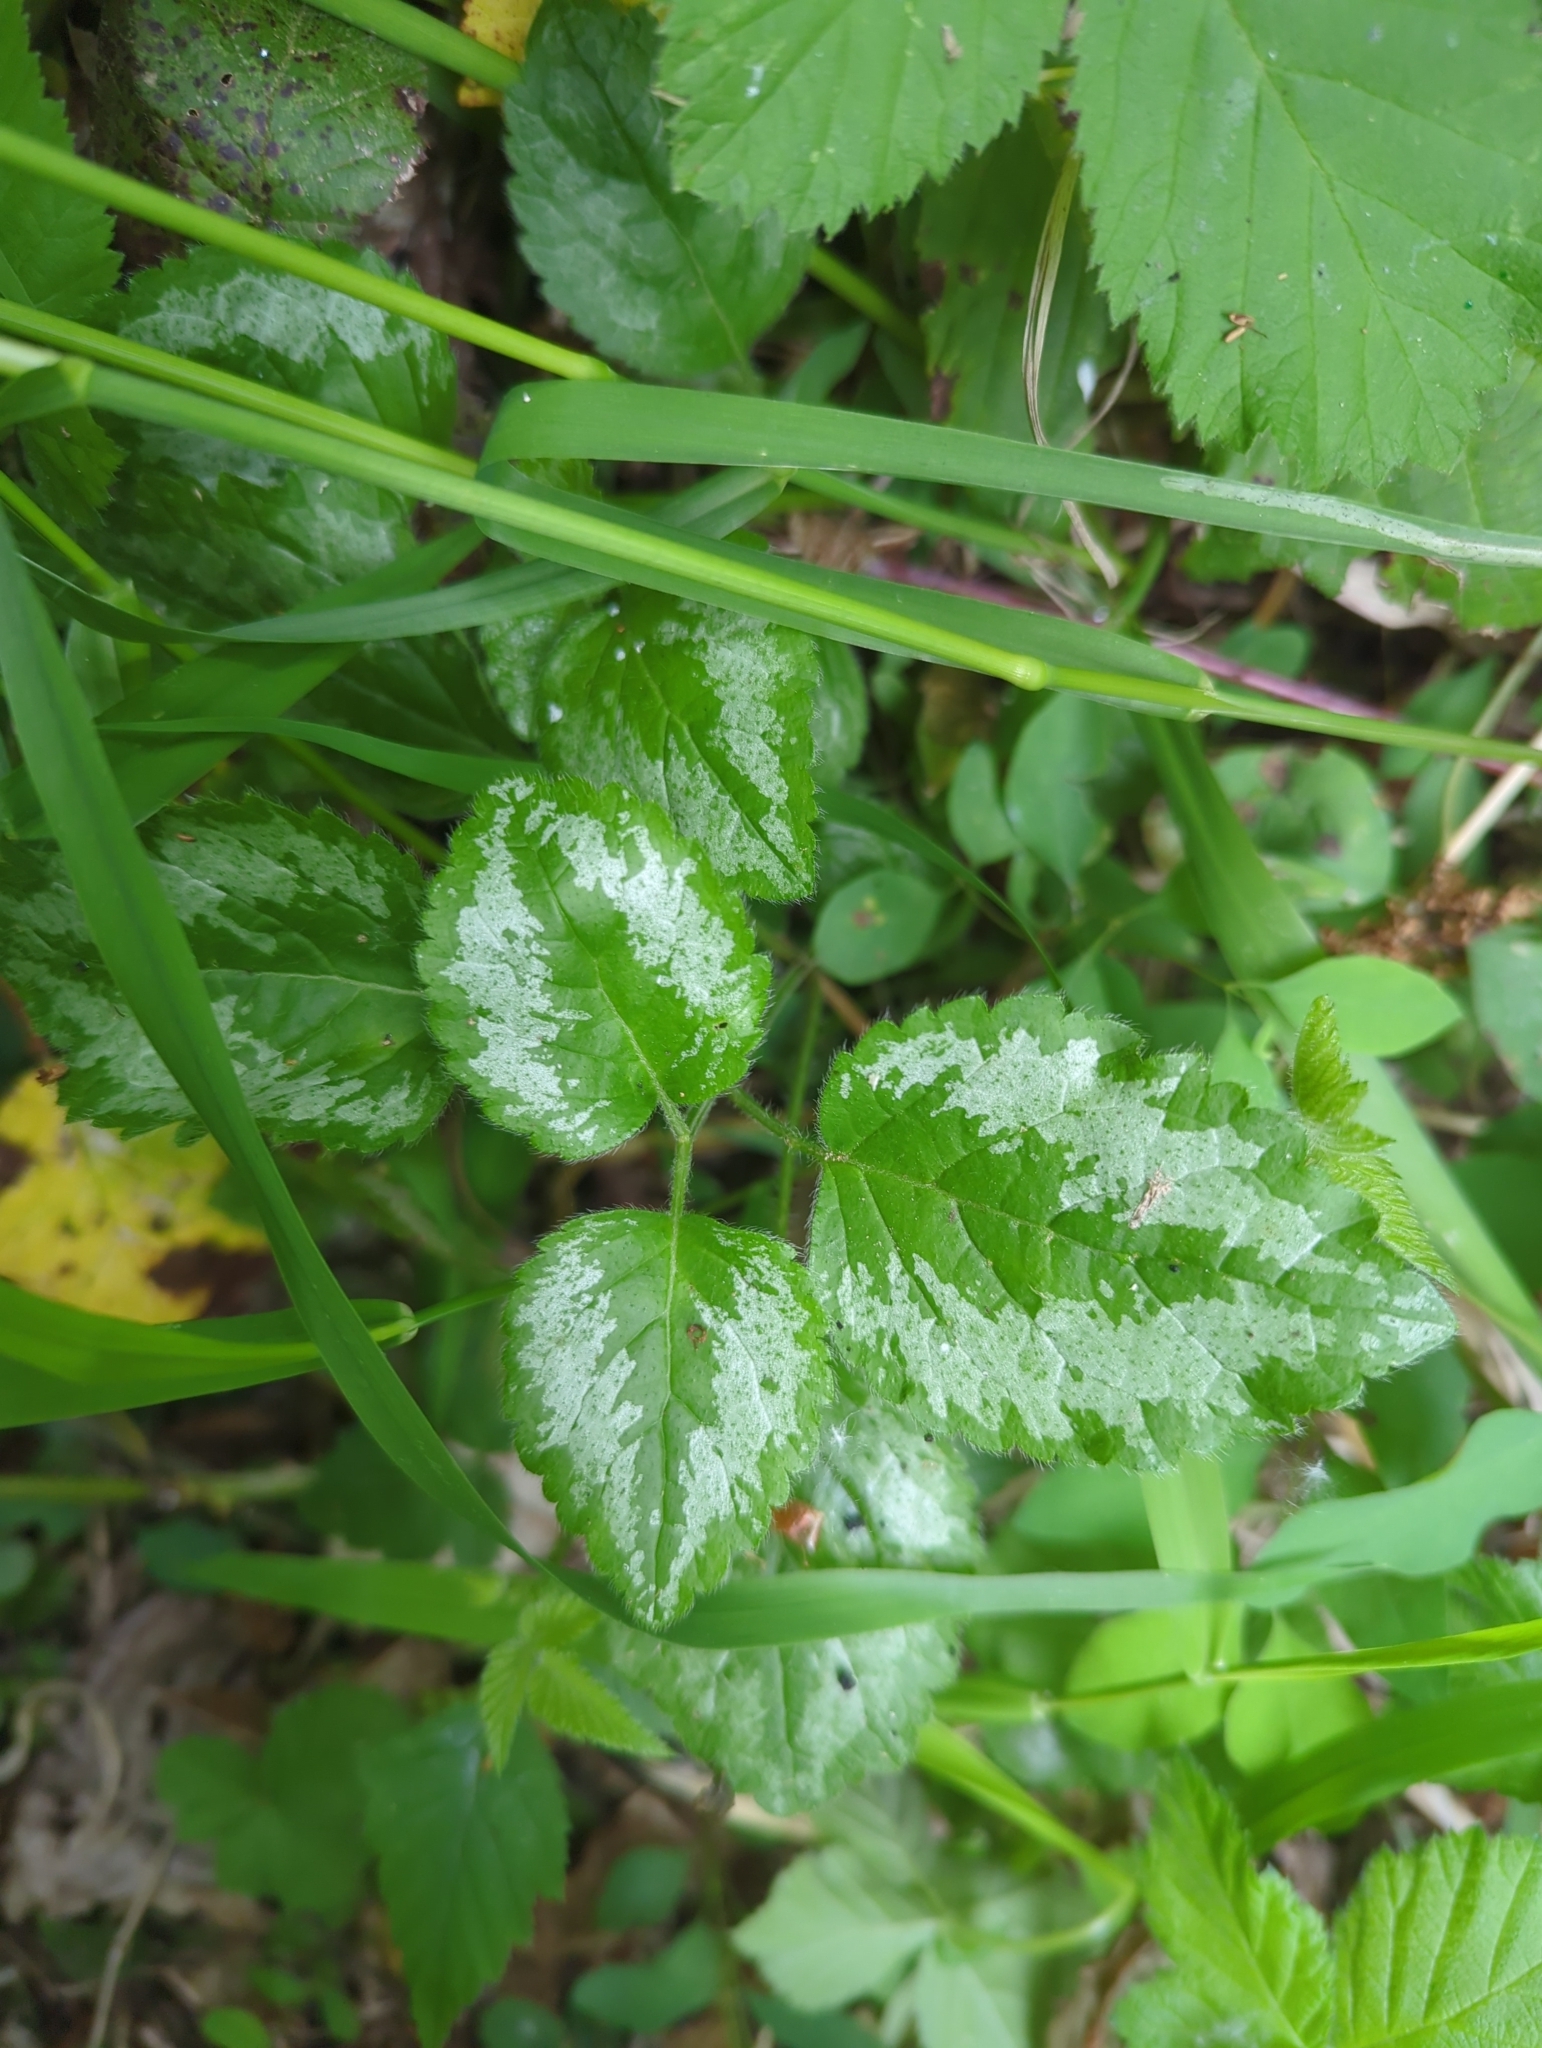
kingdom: Plantae
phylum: Tracheophyta
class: Magnoliopsida
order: Lamiales
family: Lamiaceae
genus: Lamium
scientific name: Lamium galeobdolon
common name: Yellow archangel
